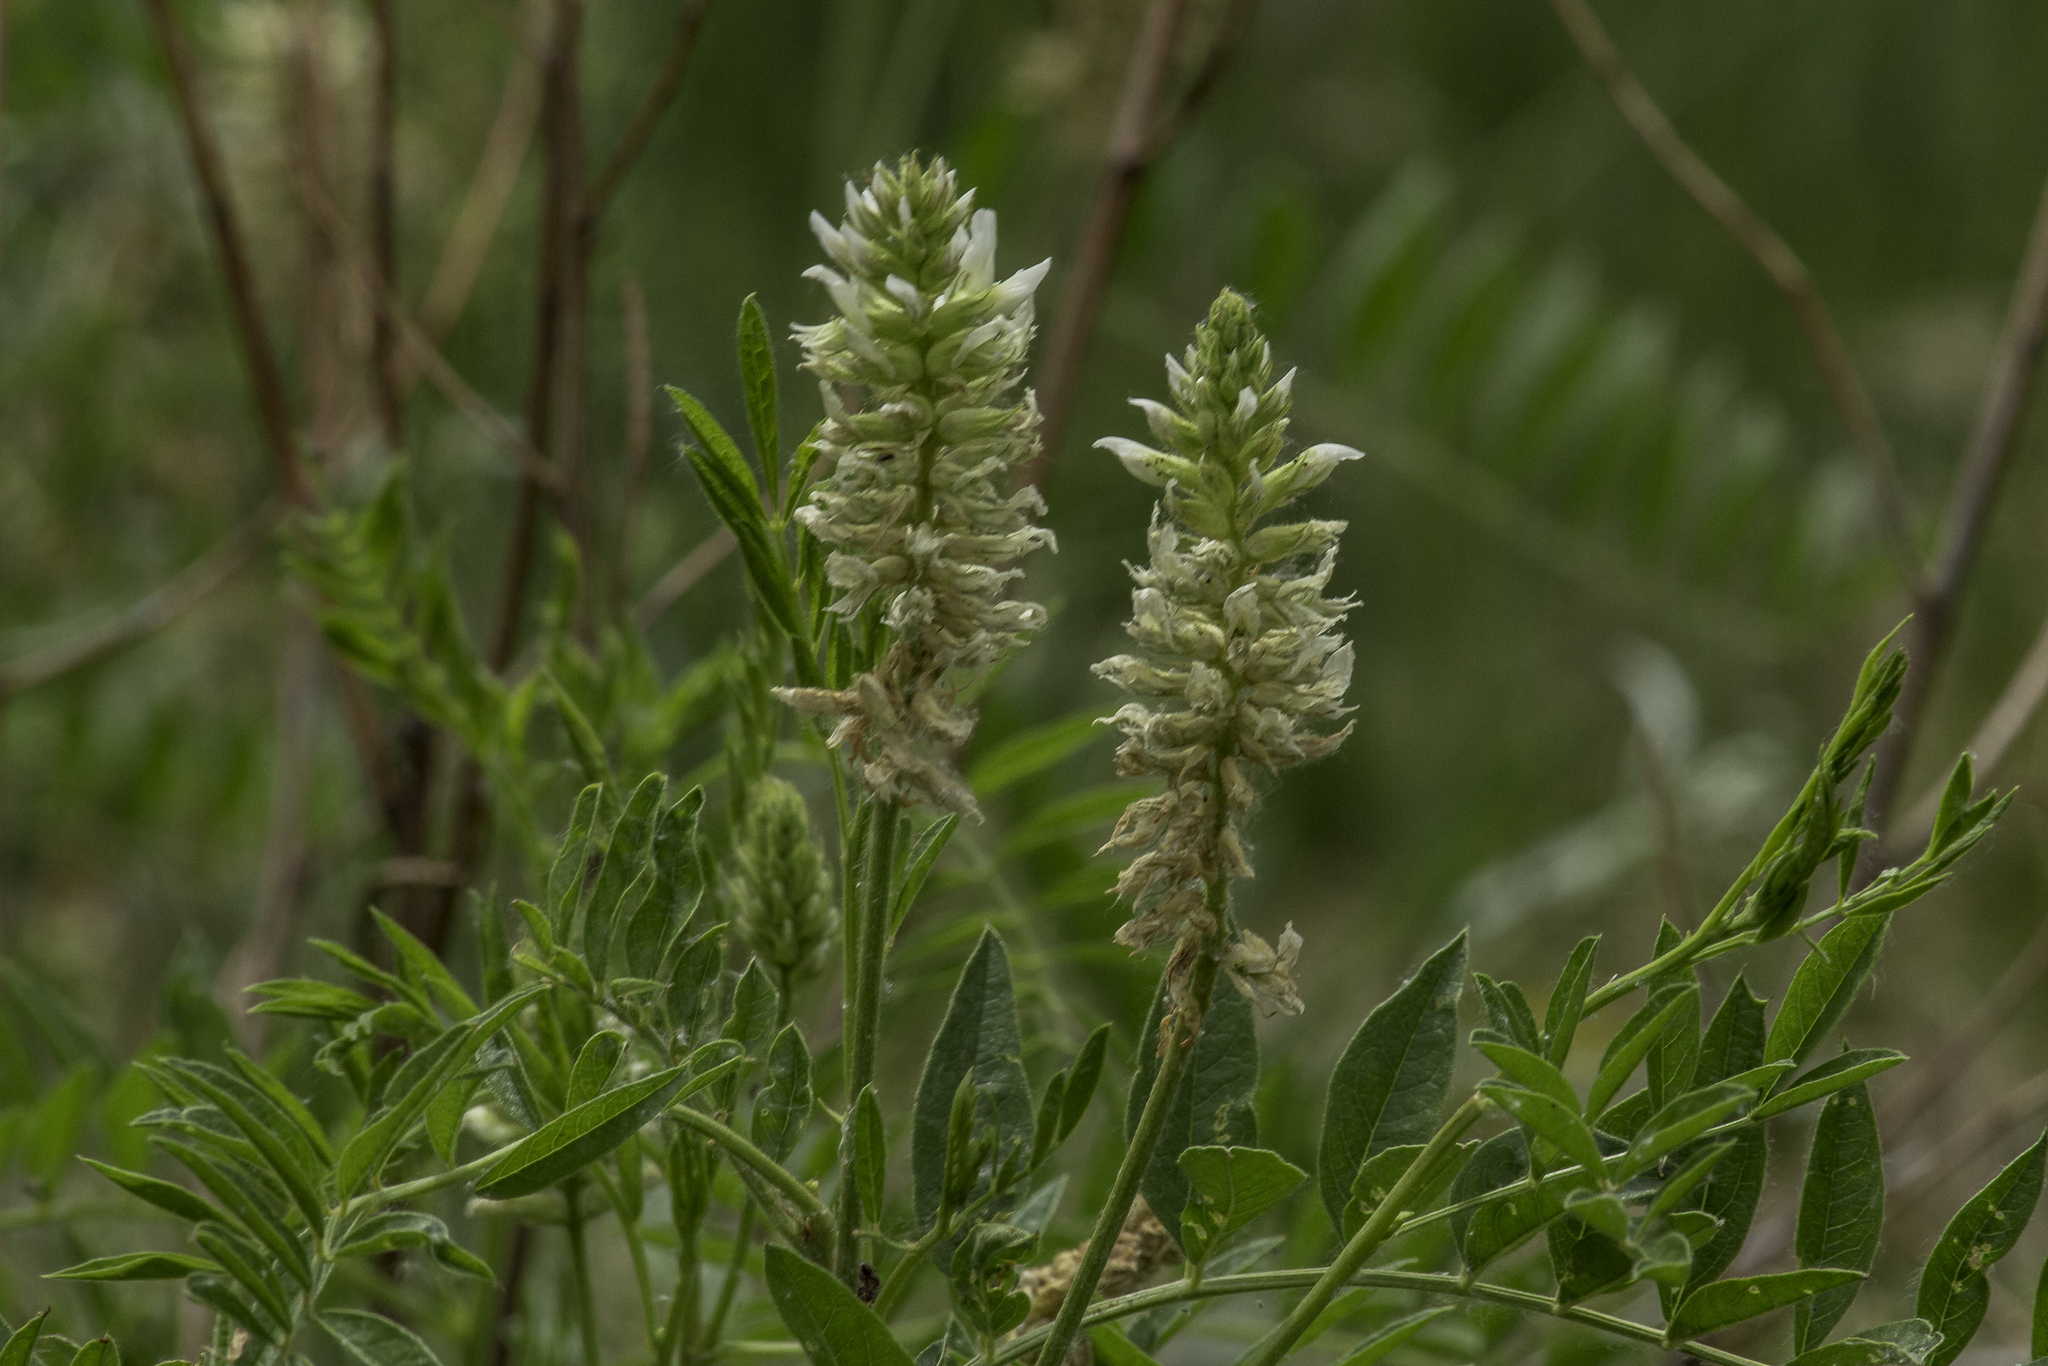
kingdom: Plantae
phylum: Tracheophyta
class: Magnoliopsida
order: Fabales
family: Fabaceae
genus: Glycyrrhiza
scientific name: Glycyrrhiza lepidota
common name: American liquorice
